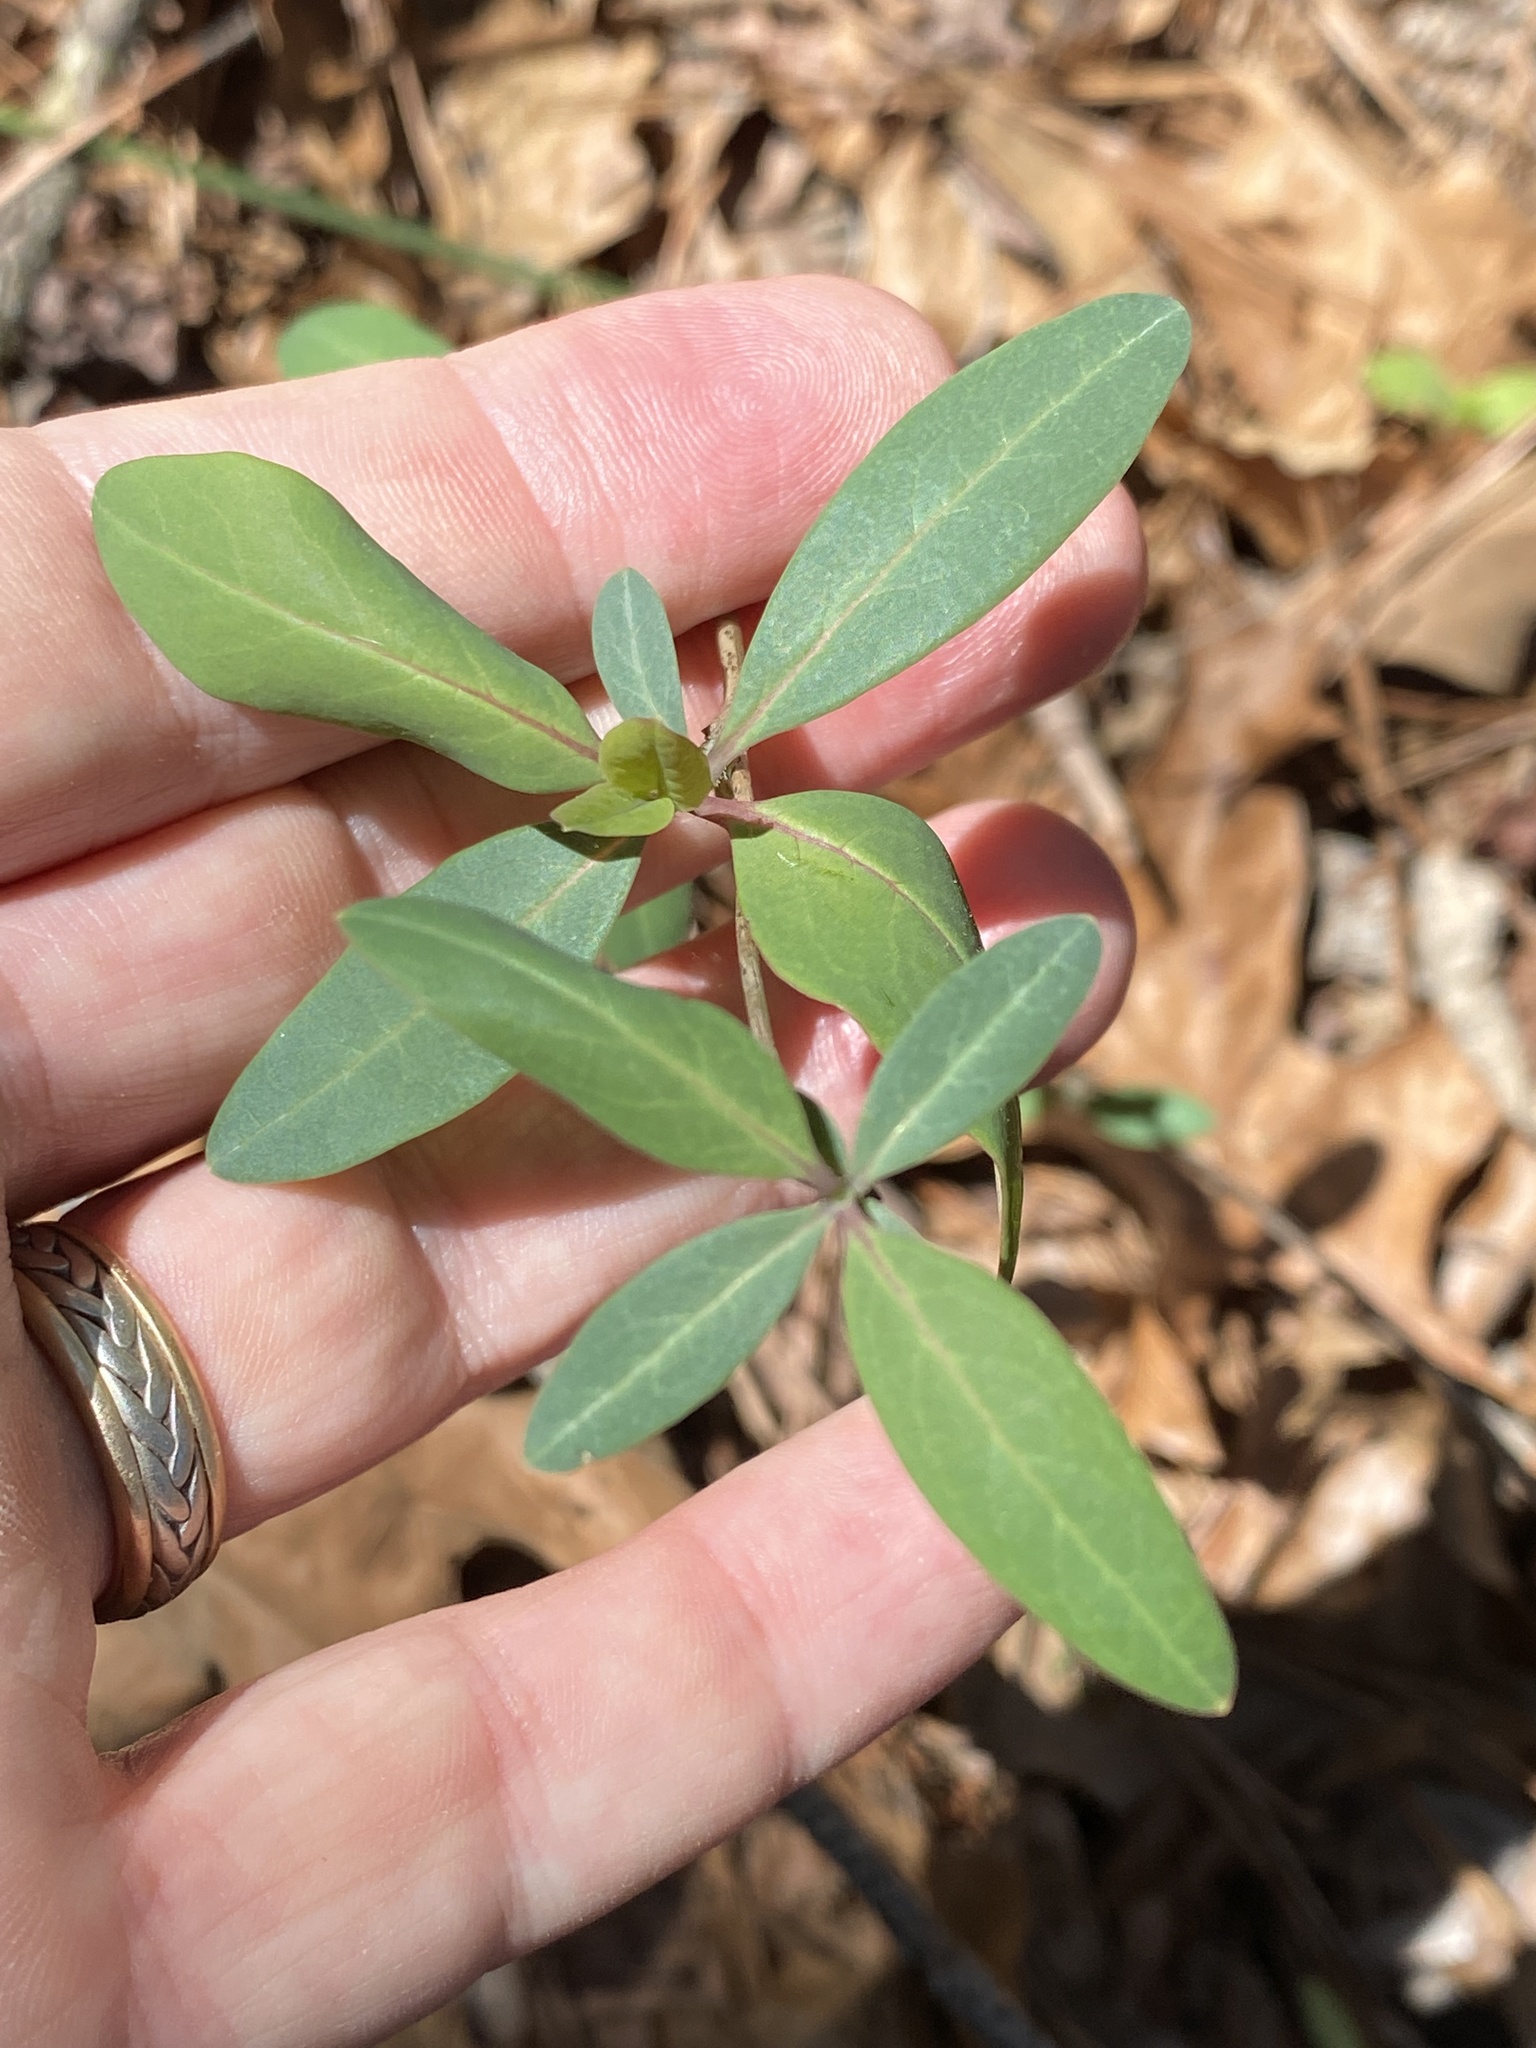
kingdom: Plantae
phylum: Tracheophyta
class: Magnoliopsida
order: Dipsacales
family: Caprifoliaceae
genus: Lonicera
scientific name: Lonicera sempervirens
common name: Coral honeysuckle
